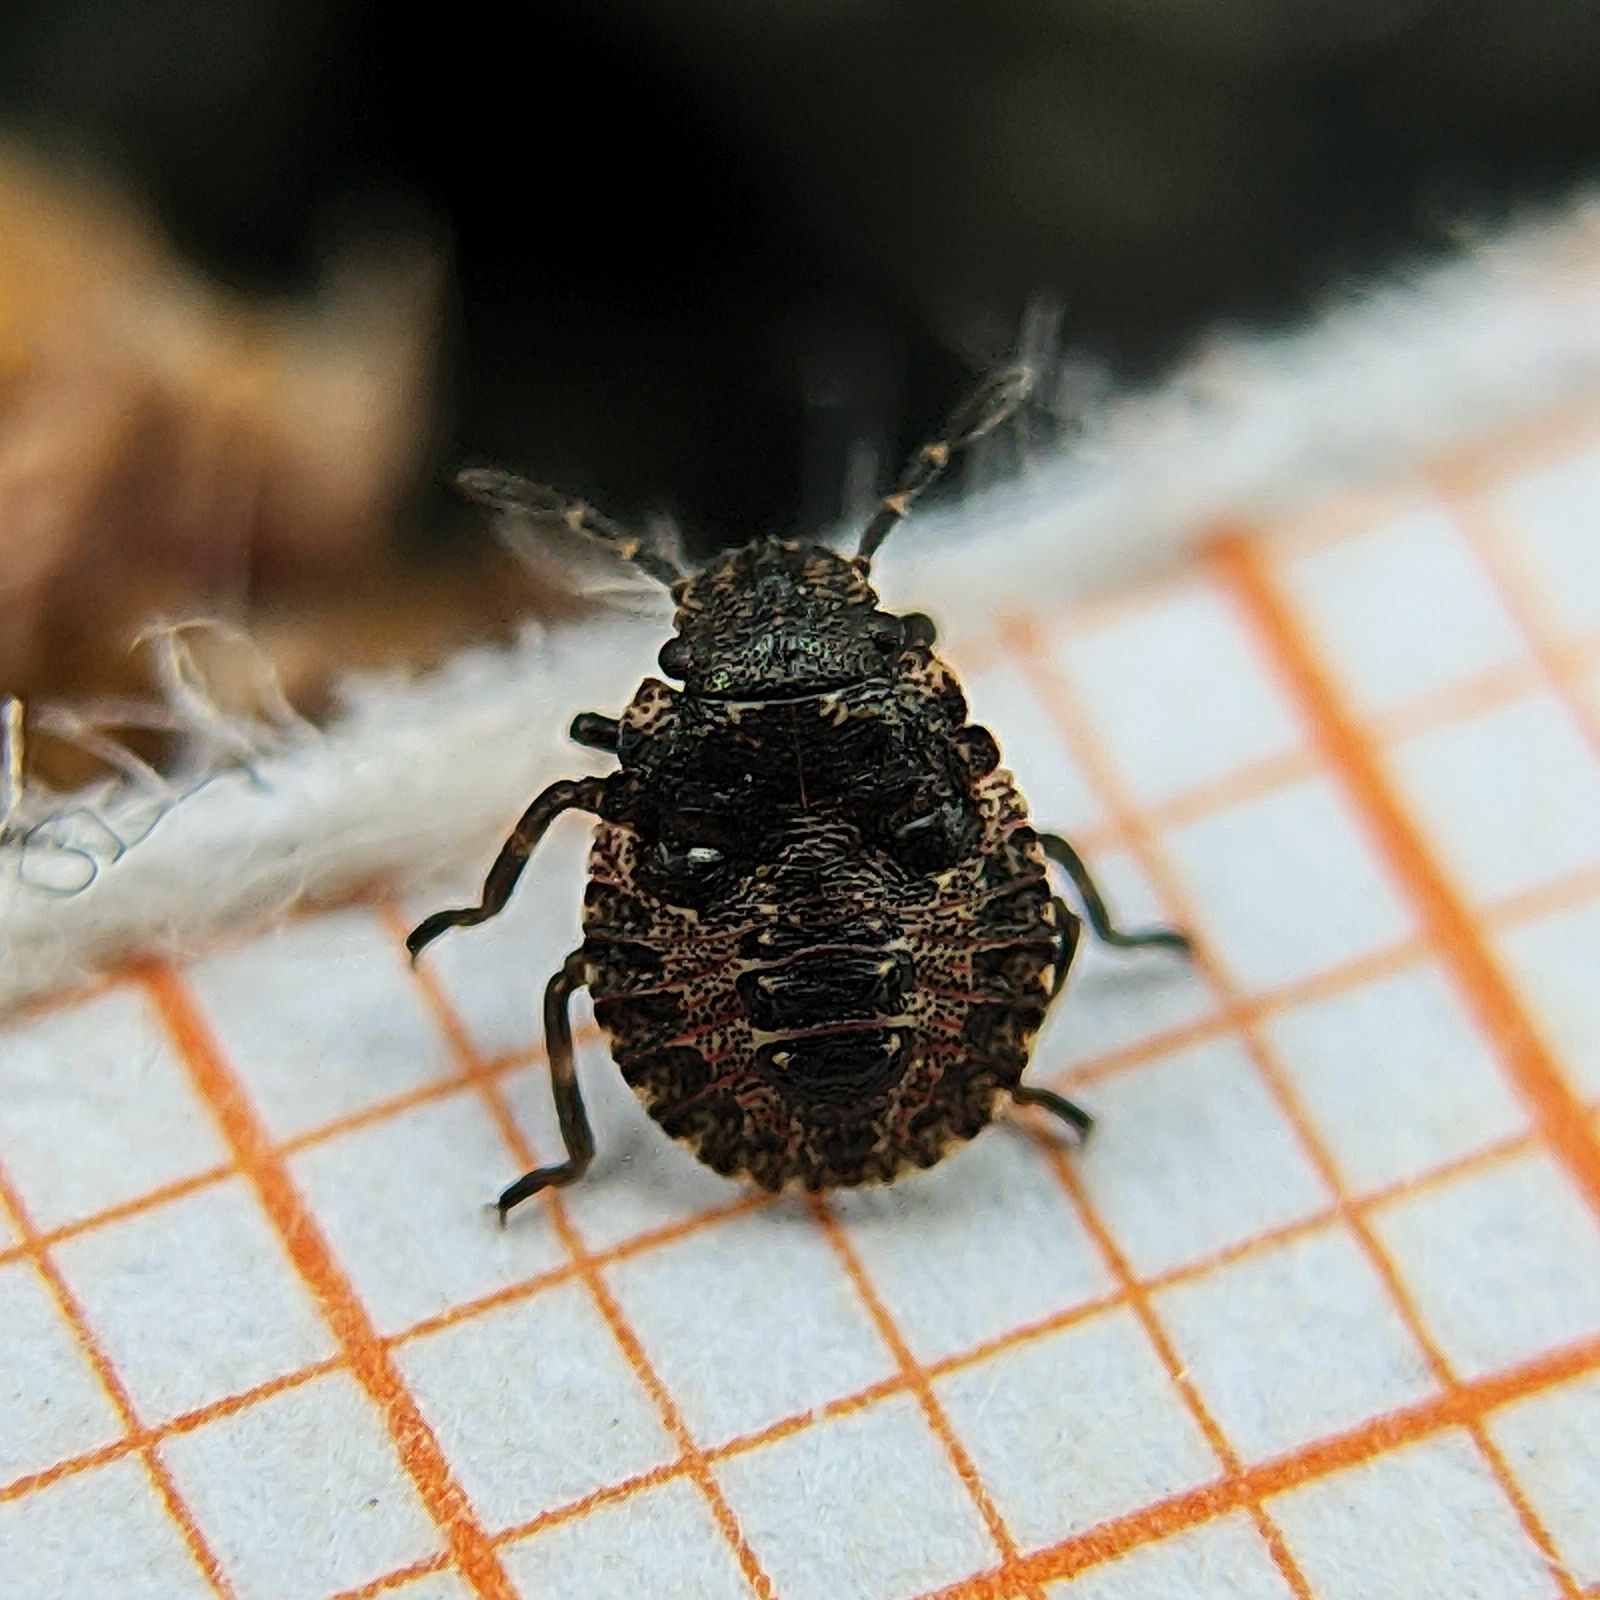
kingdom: Animalia
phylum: Arthropoda
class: Insecta
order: Hemiptera
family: Pentatomidae
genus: Pentatoma
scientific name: Pentatoma rufipes
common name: Forest bug
